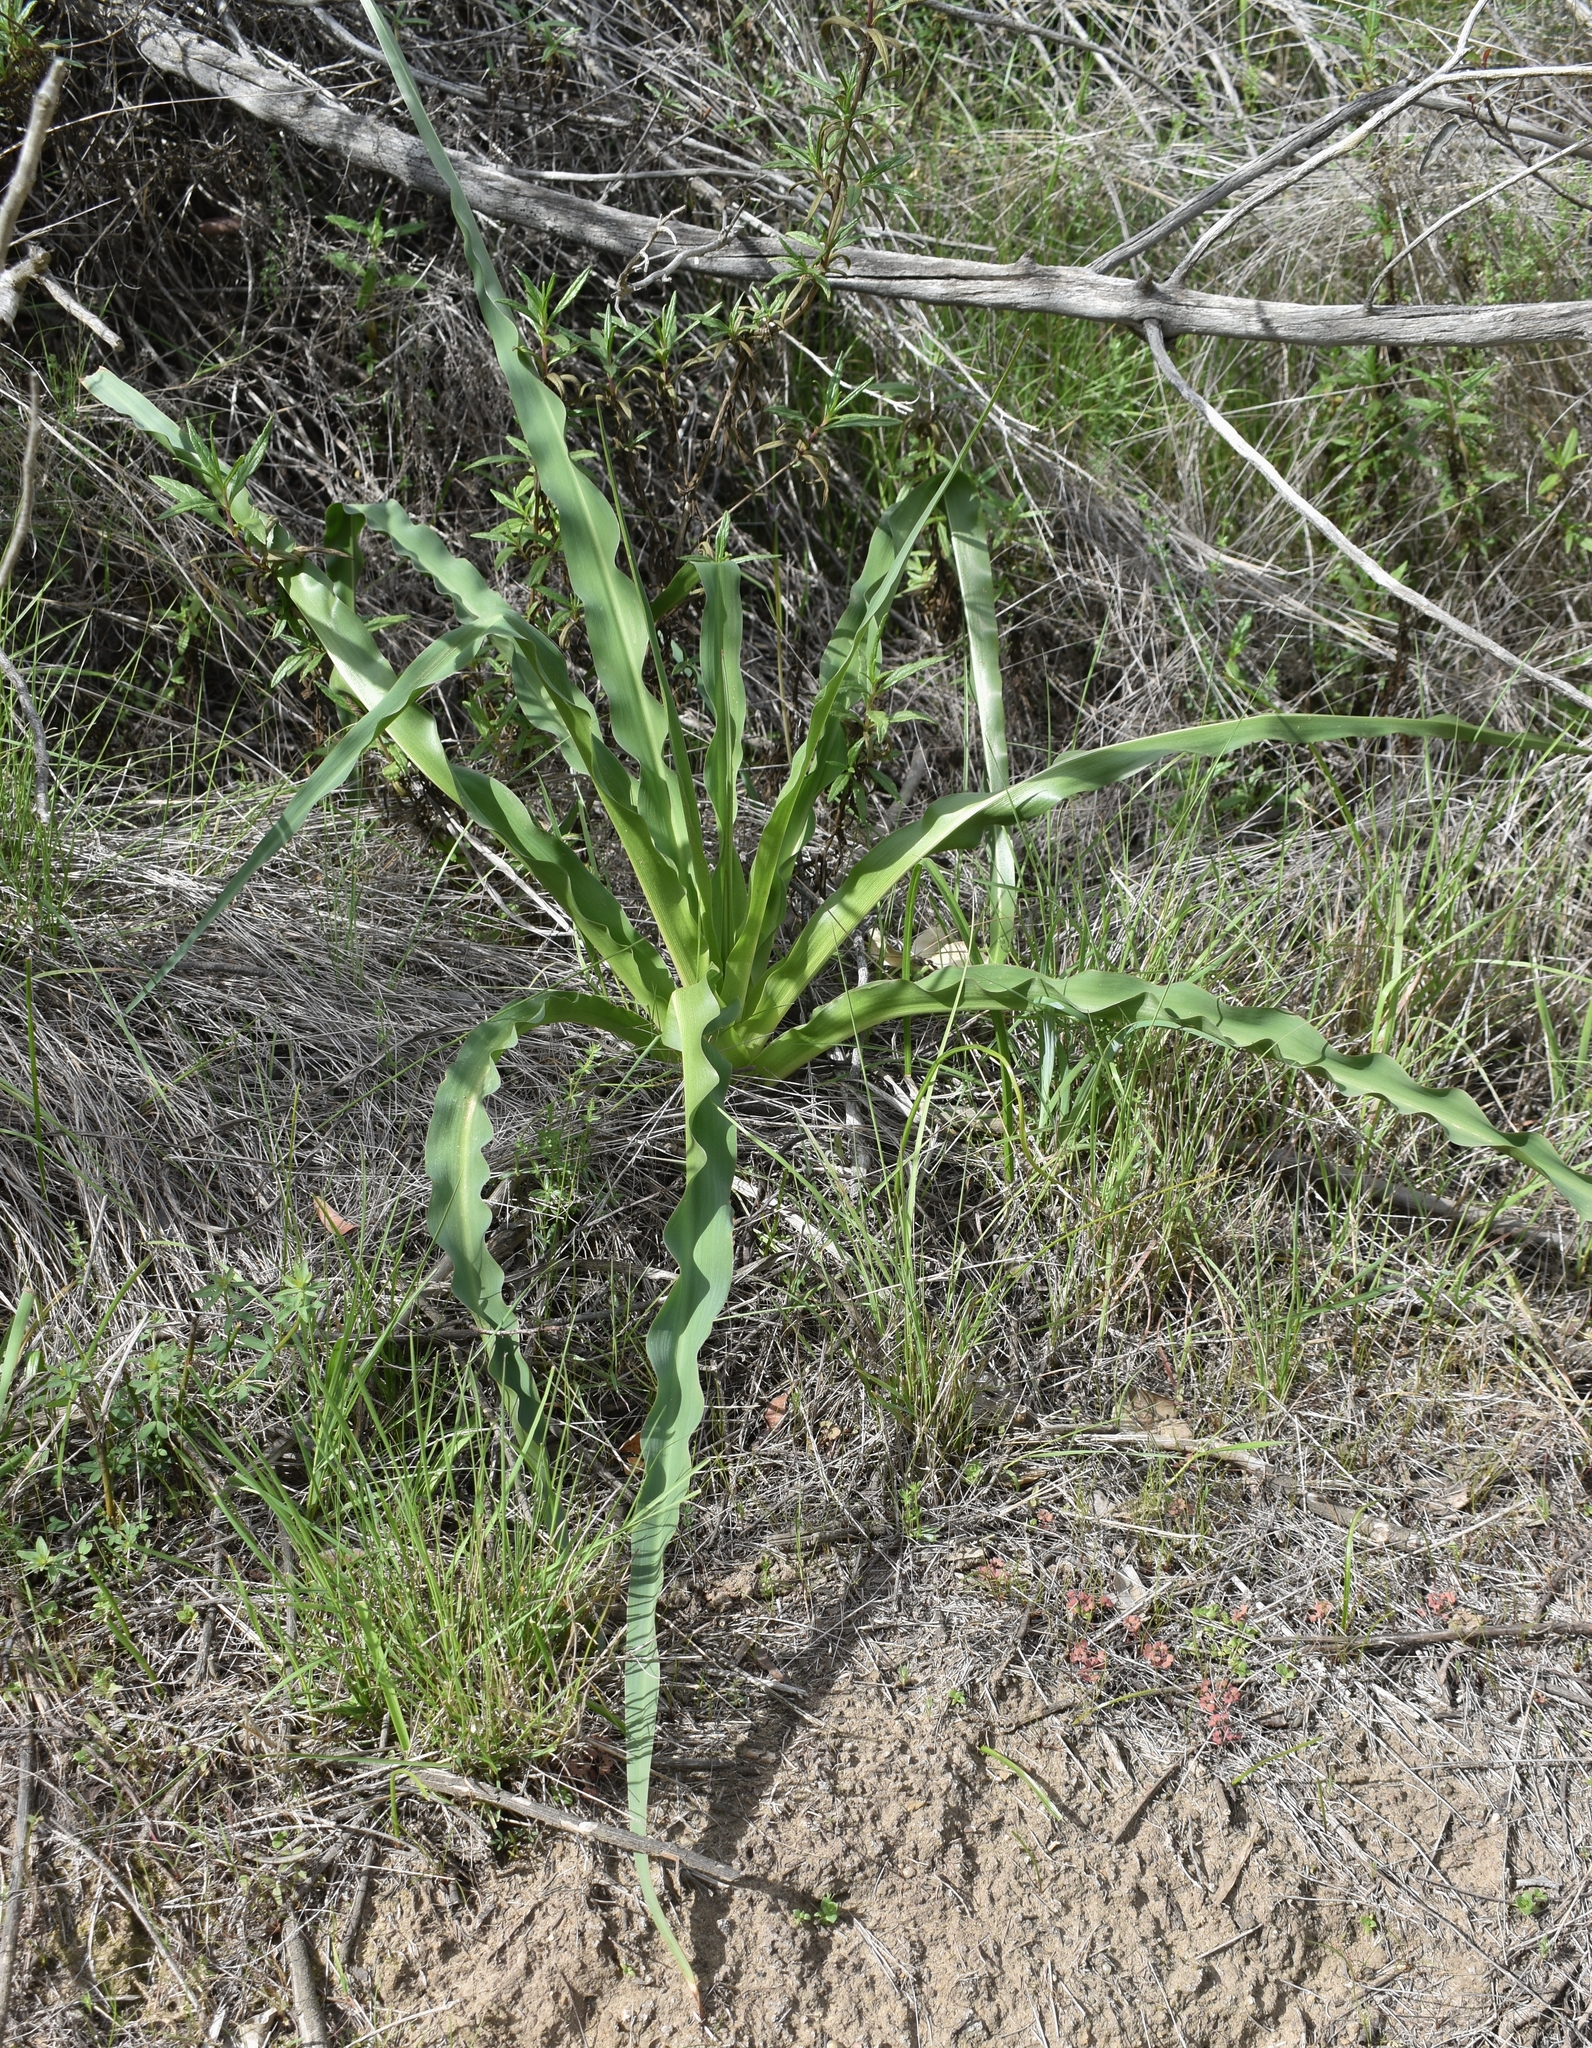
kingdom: Plantae
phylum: Tracheophyta
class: Liliopsida
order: Asparagales
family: Asparagaceae
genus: Chlorogalum
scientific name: Chlorogalum pomeridianum
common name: Amole
